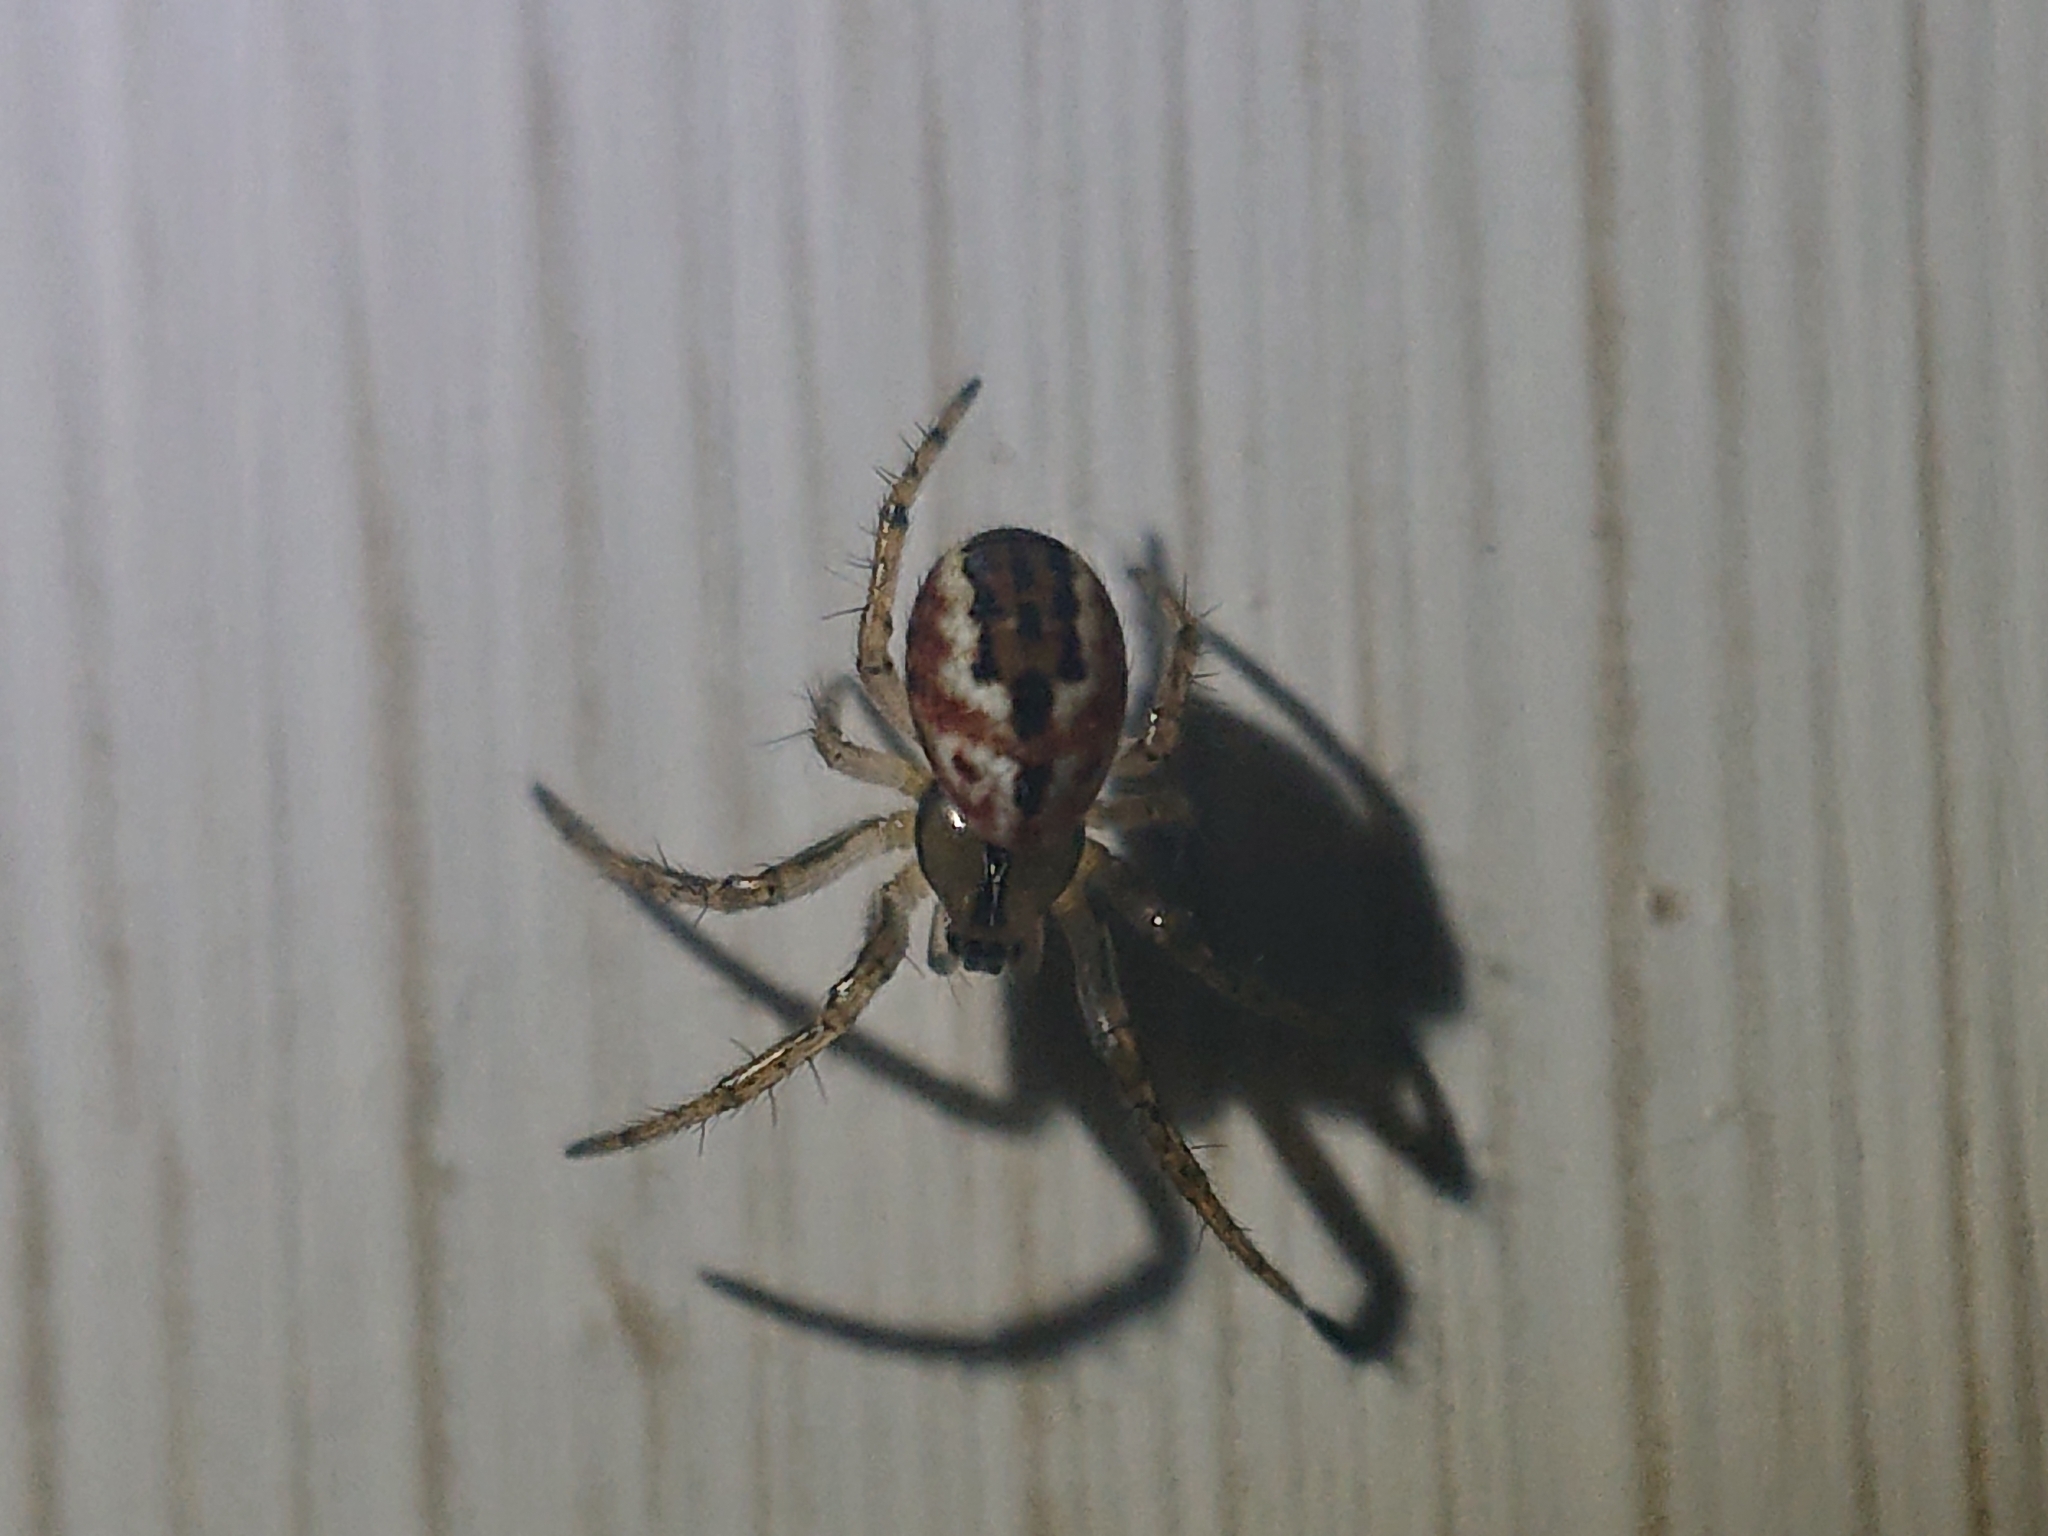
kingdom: Animalia
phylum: Arthropoda
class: Arachnida
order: Araneae
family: Araneidae
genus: Mangora
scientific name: Mangora acalypha
